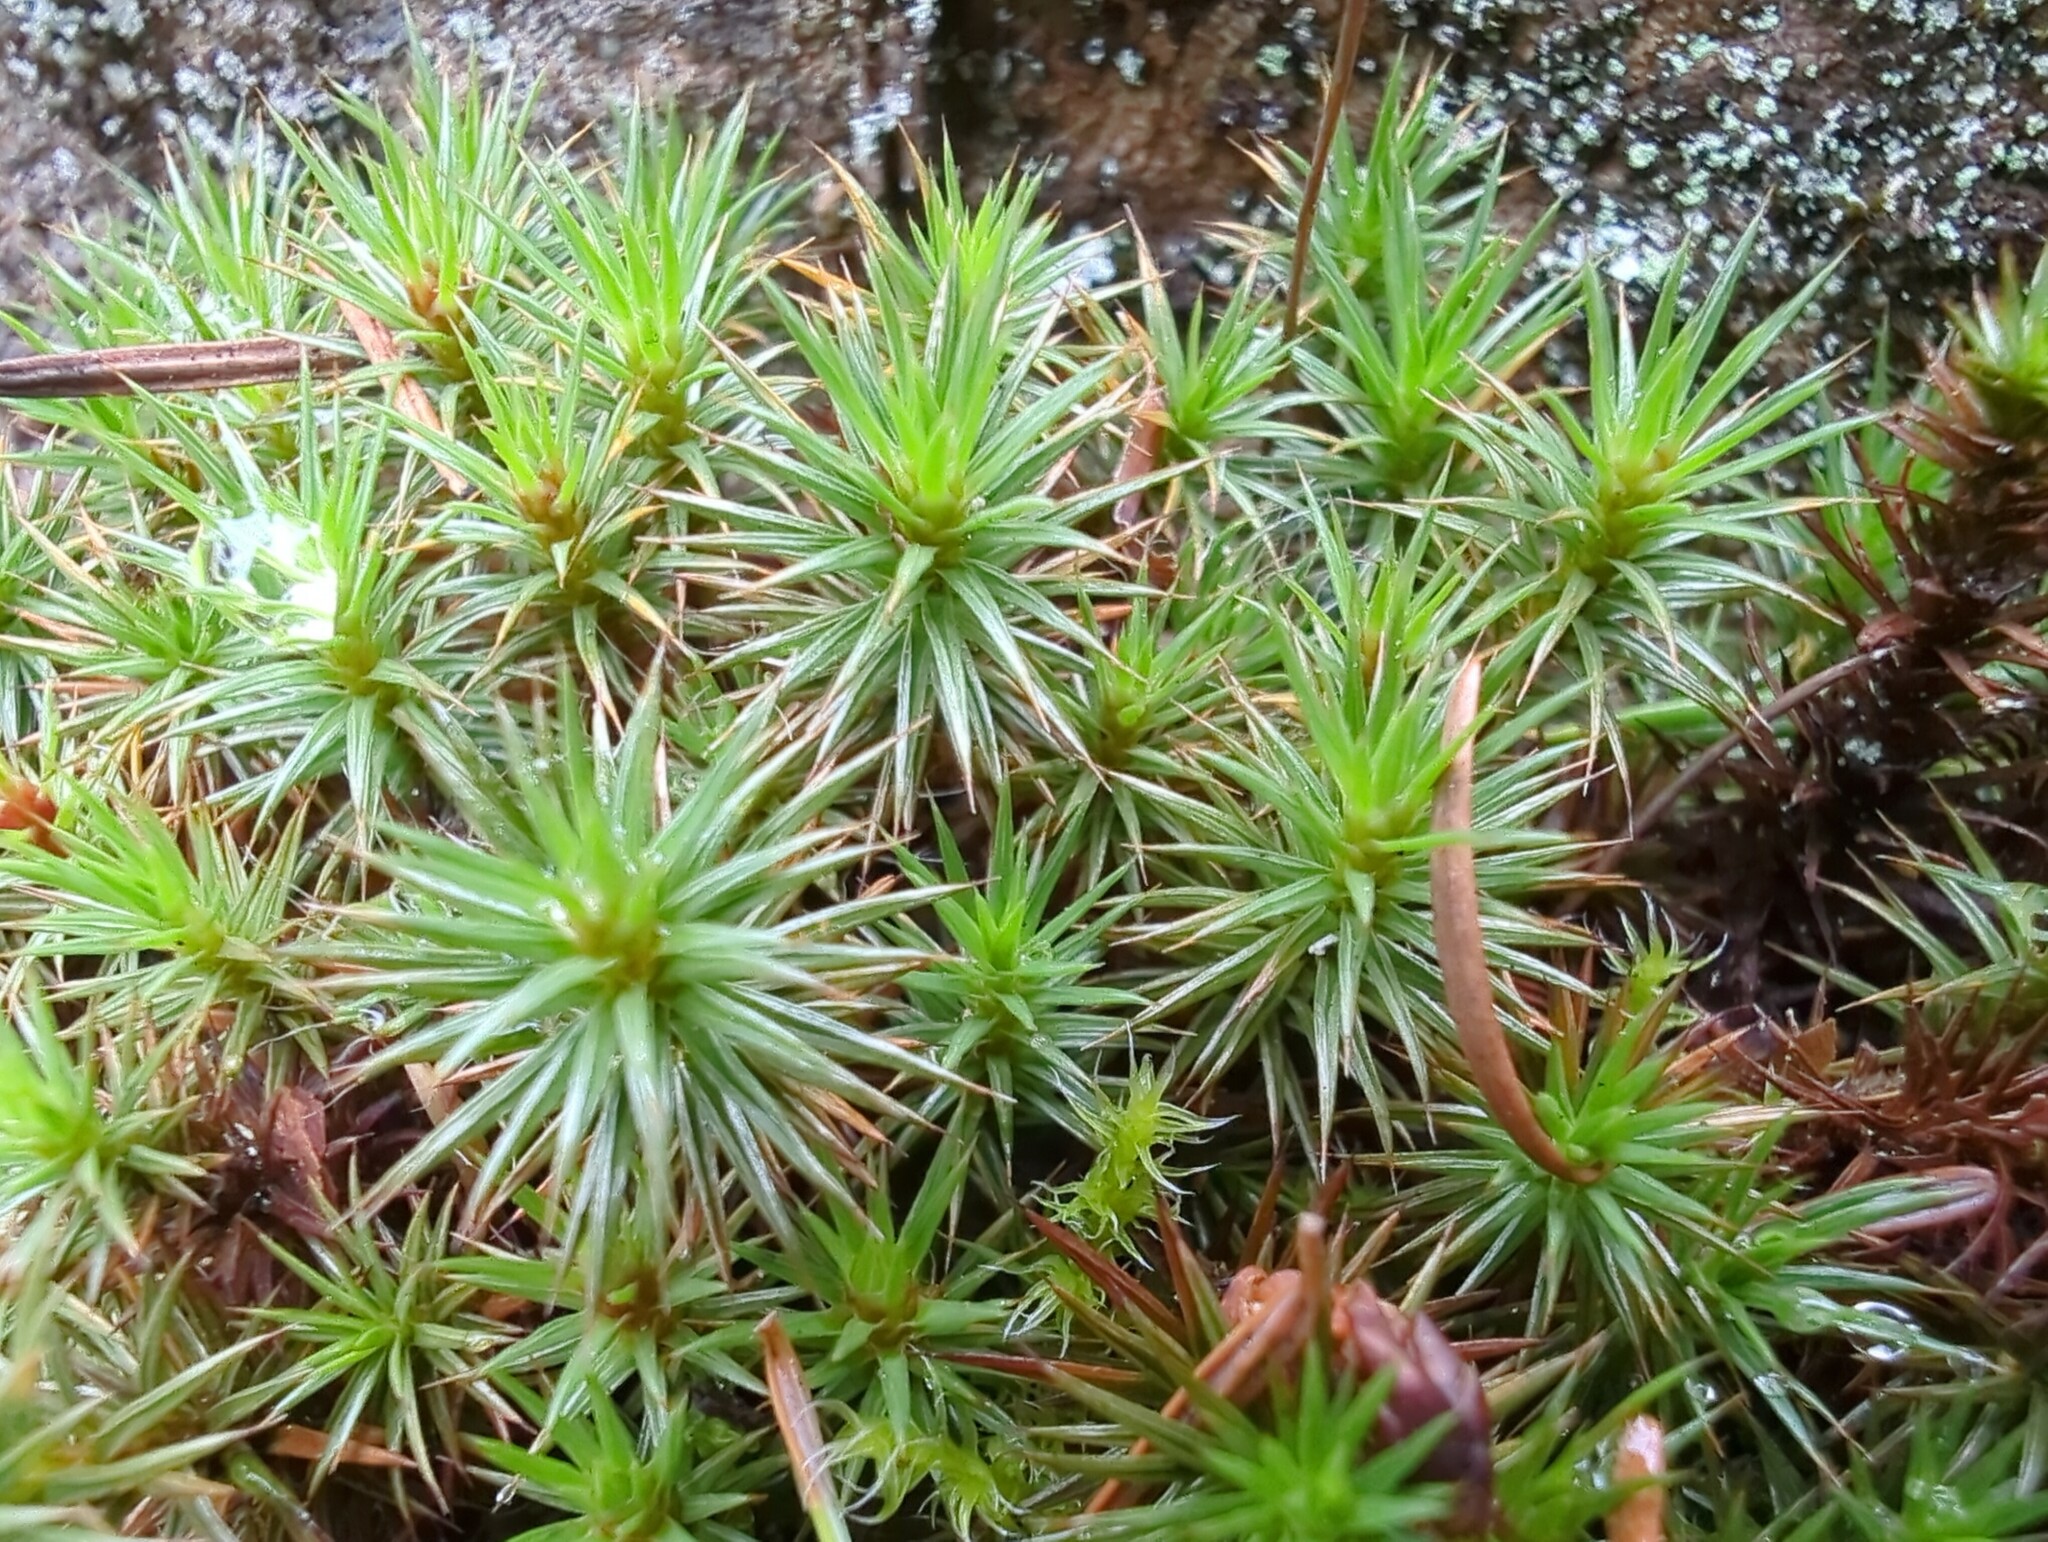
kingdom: Plantae
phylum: Bryophyta
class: Polytrichopsida
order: Polytrichales
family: Polytrichaceae
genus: Polytrichum
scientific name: Polytrichum juniperinum
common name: Juniper haircap moss
